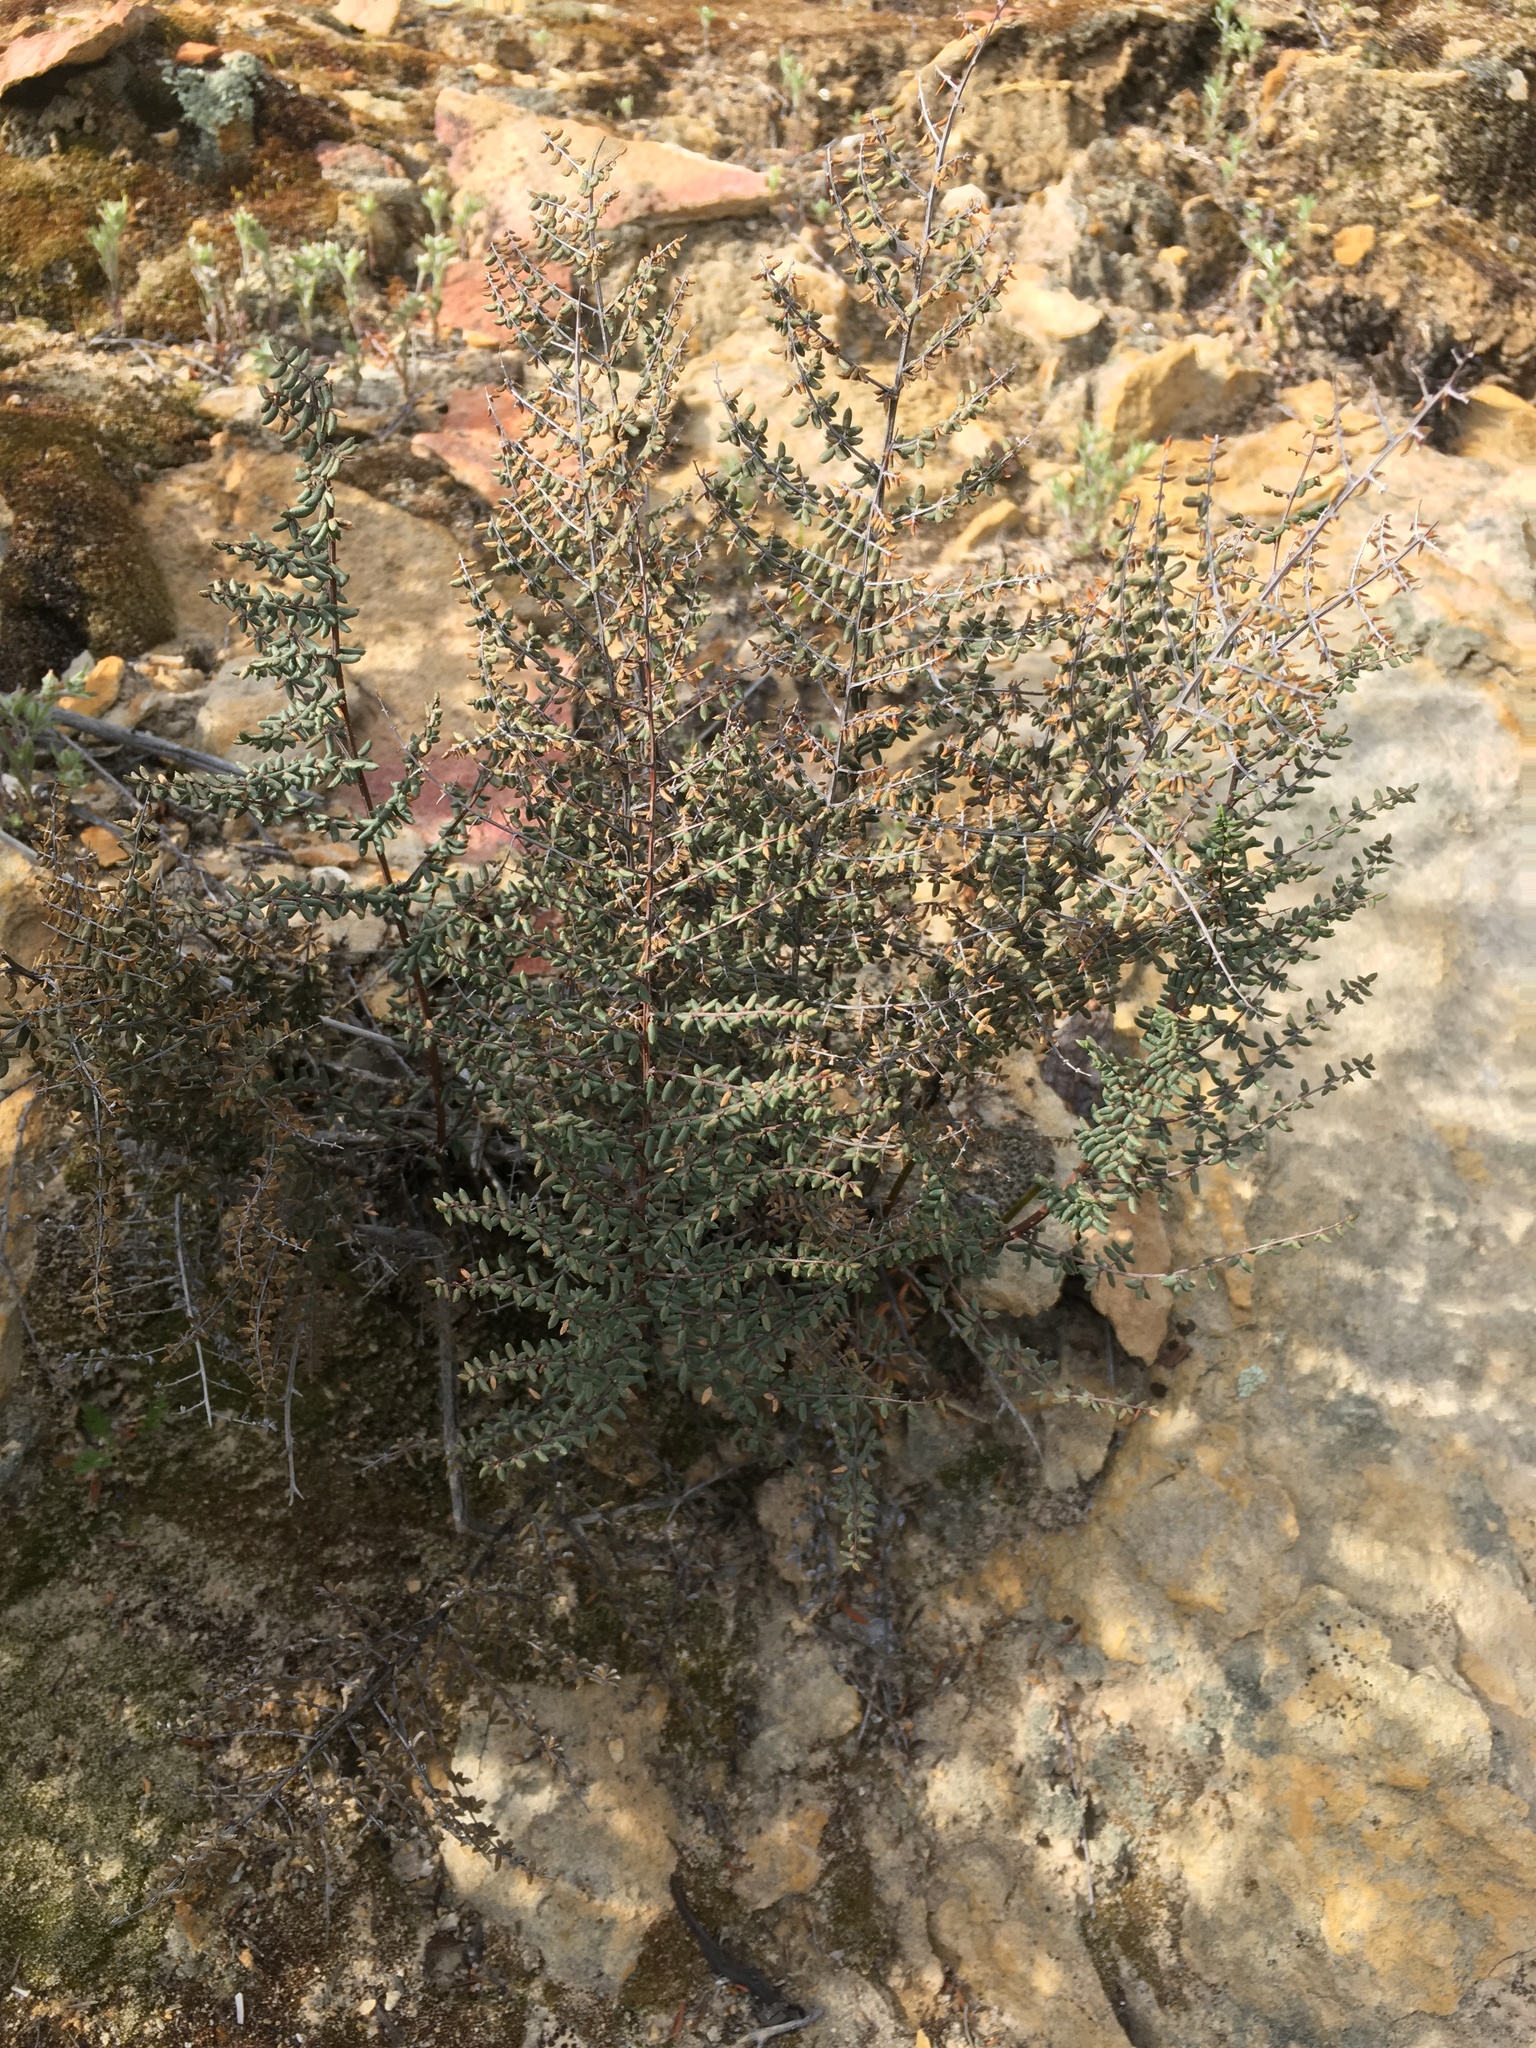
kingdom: Plantae
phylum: Tracheophyta
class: Polypodiopsida
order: Polypodiales
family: Pteridaceae
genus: Pellaea
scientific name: Pellaea mucronata
